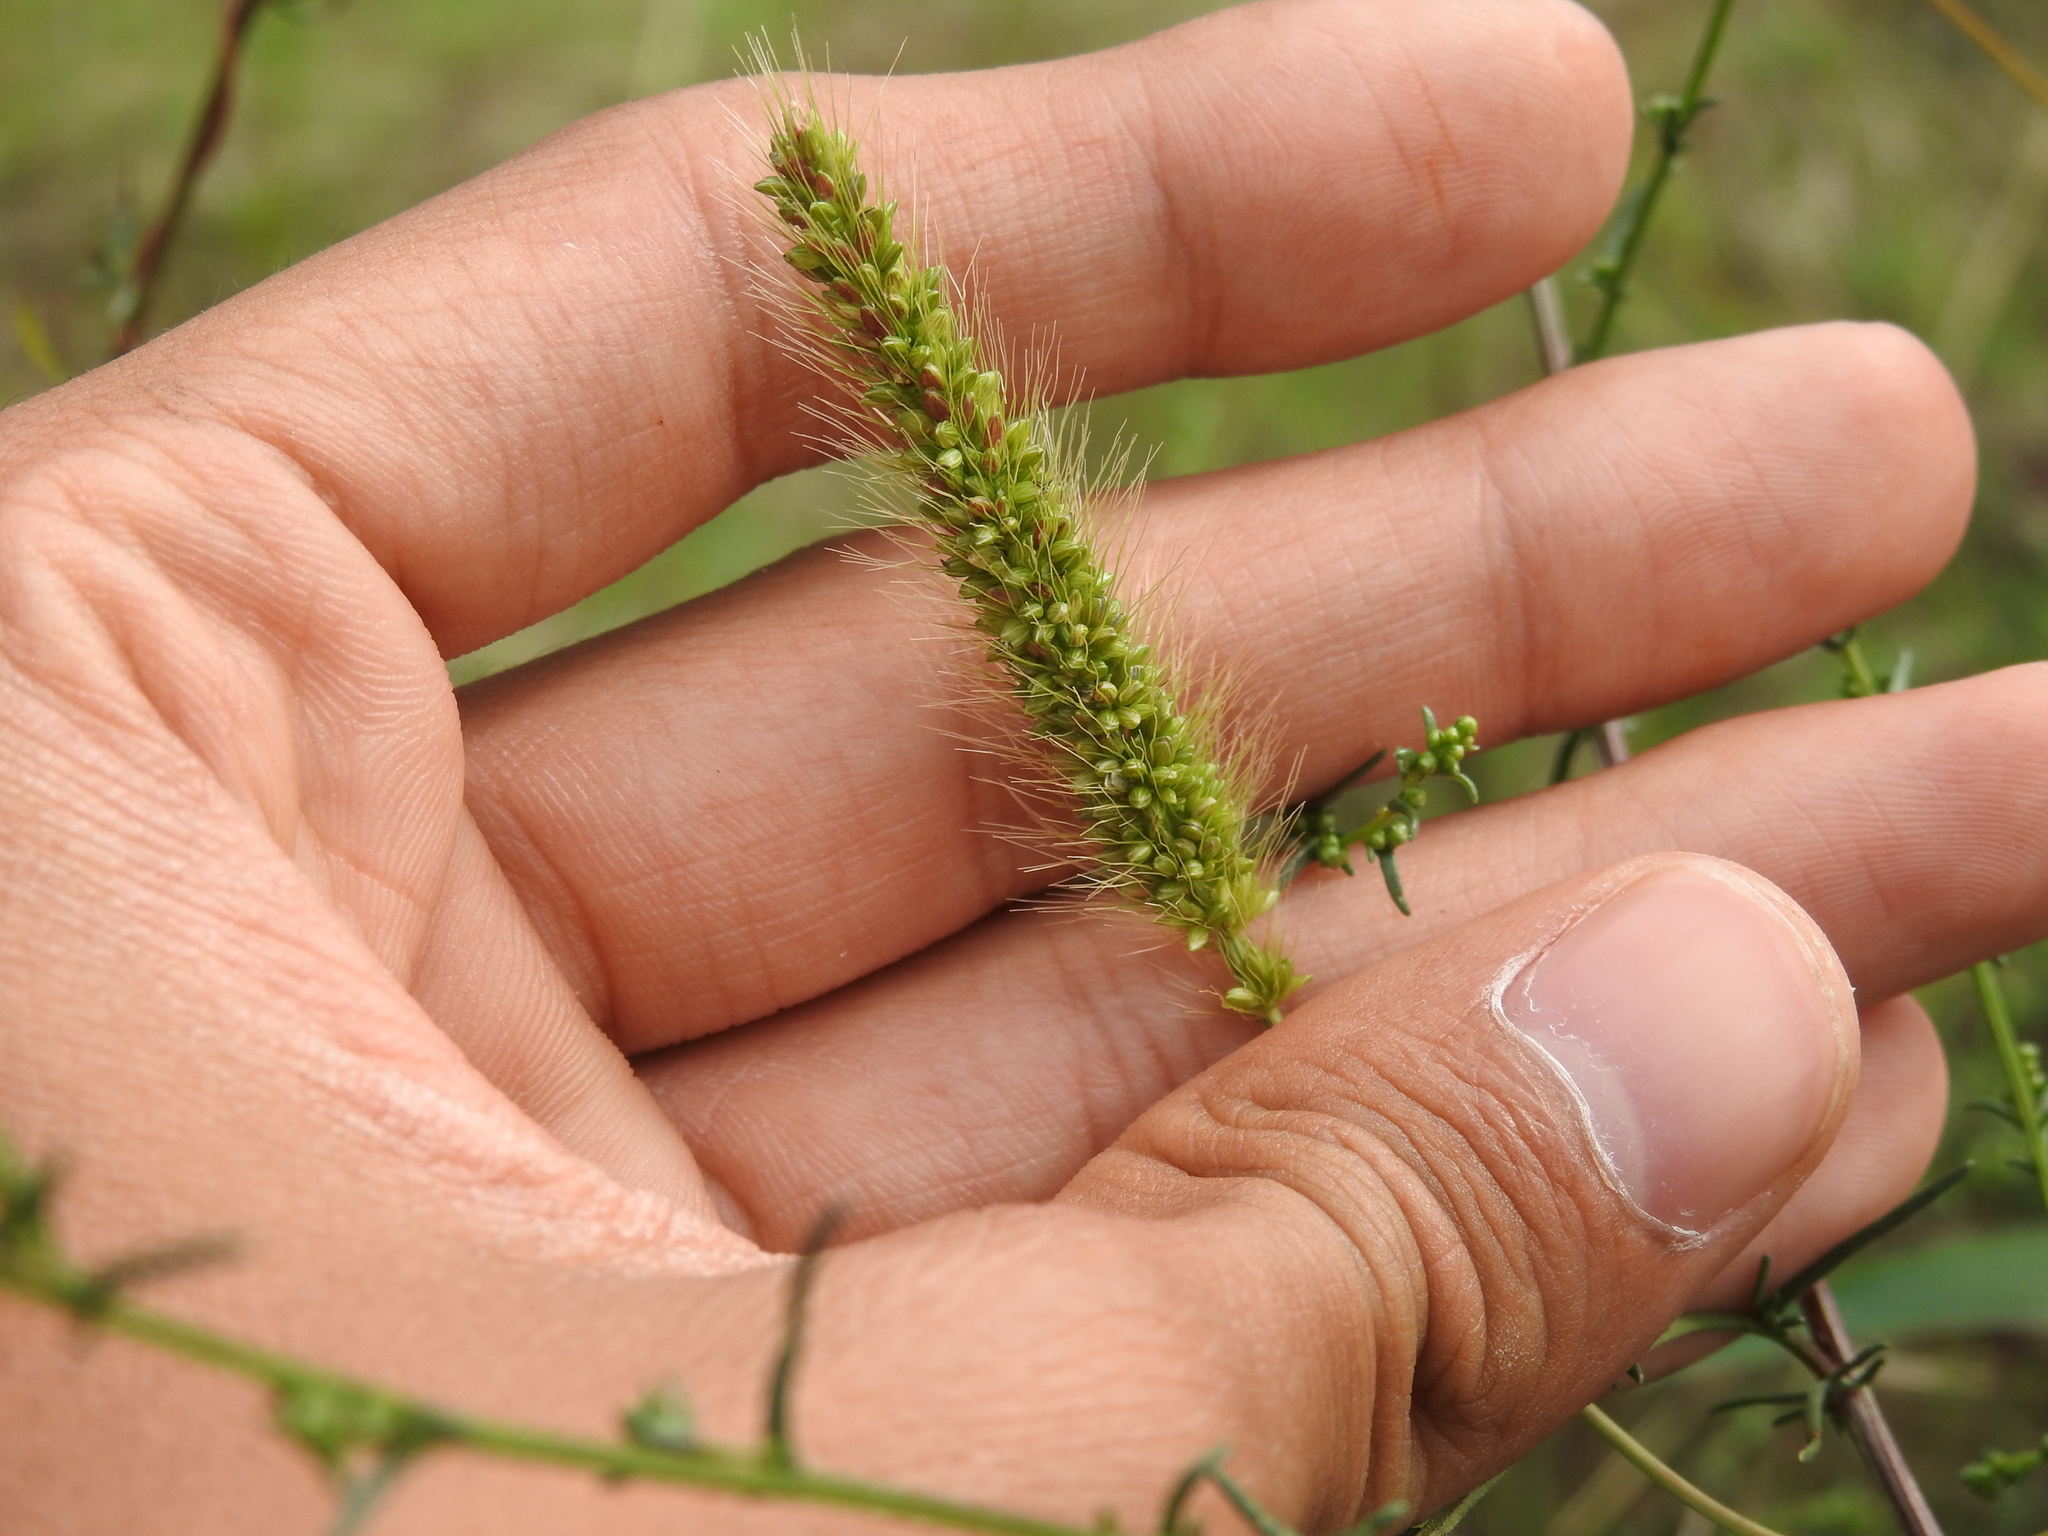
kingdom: Plantae
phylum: Tracheophyta
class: Liliopsida
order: Poales
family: Poaceae
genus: Setaria
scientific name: Setaria viridis
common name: Green bristlegrass
